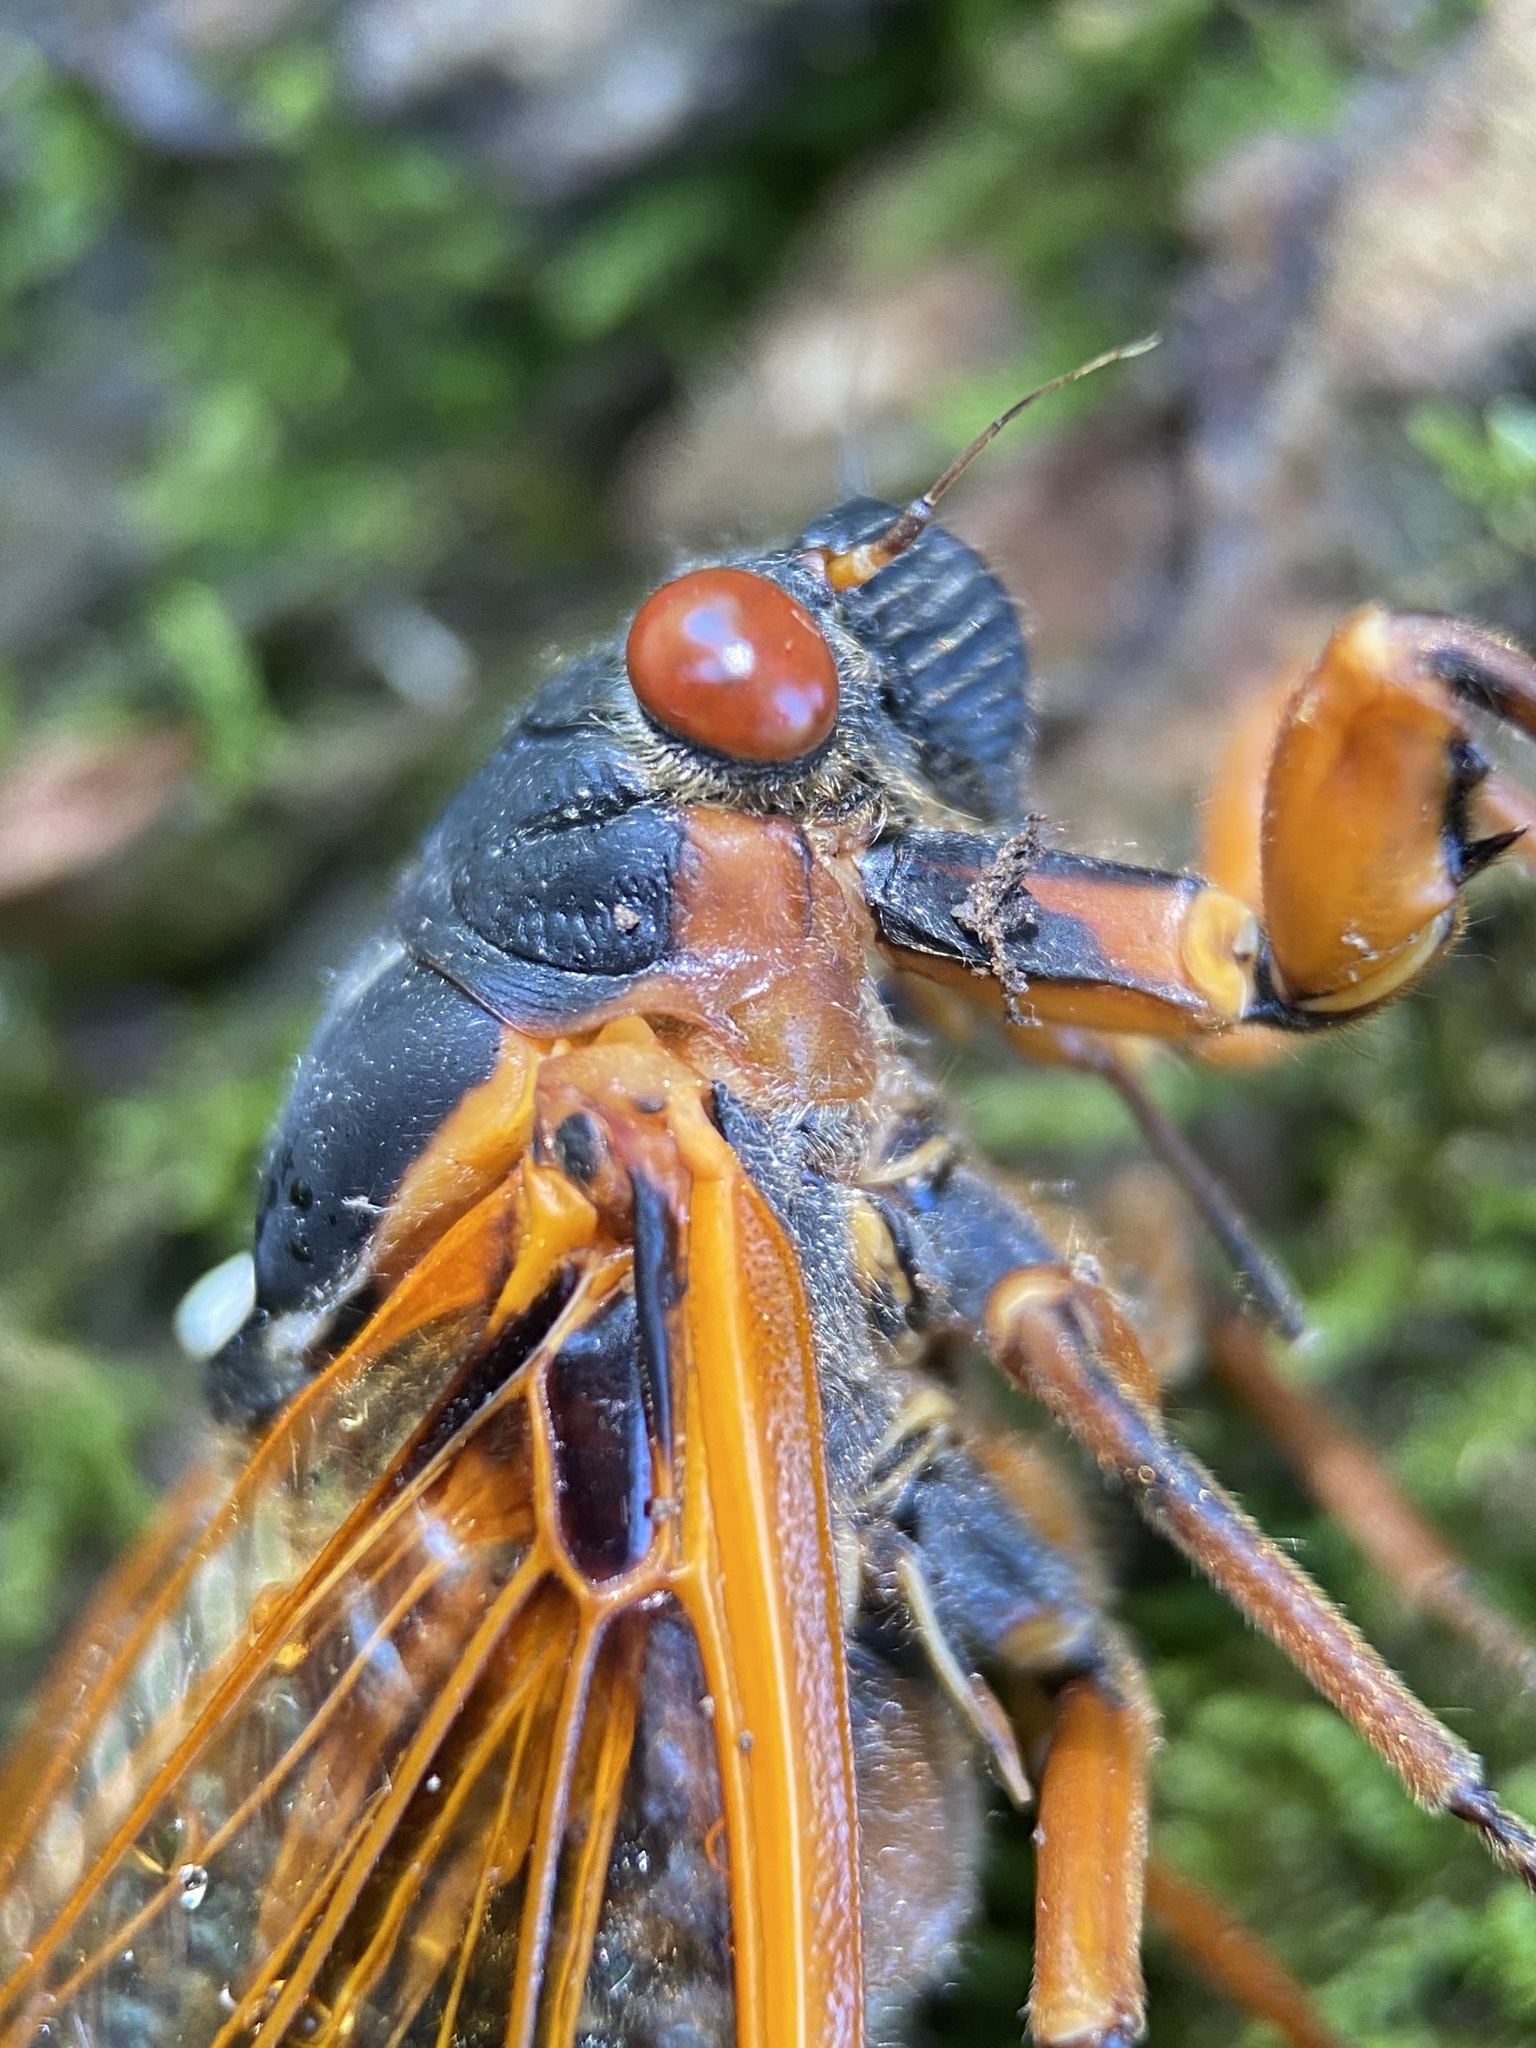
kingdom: Animalia
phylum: Arthropoda
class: Insecta
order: Hemiptera
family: Cicadidae
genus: Magicicada
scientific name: Magicicada septendecim
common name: Periodical cicada
